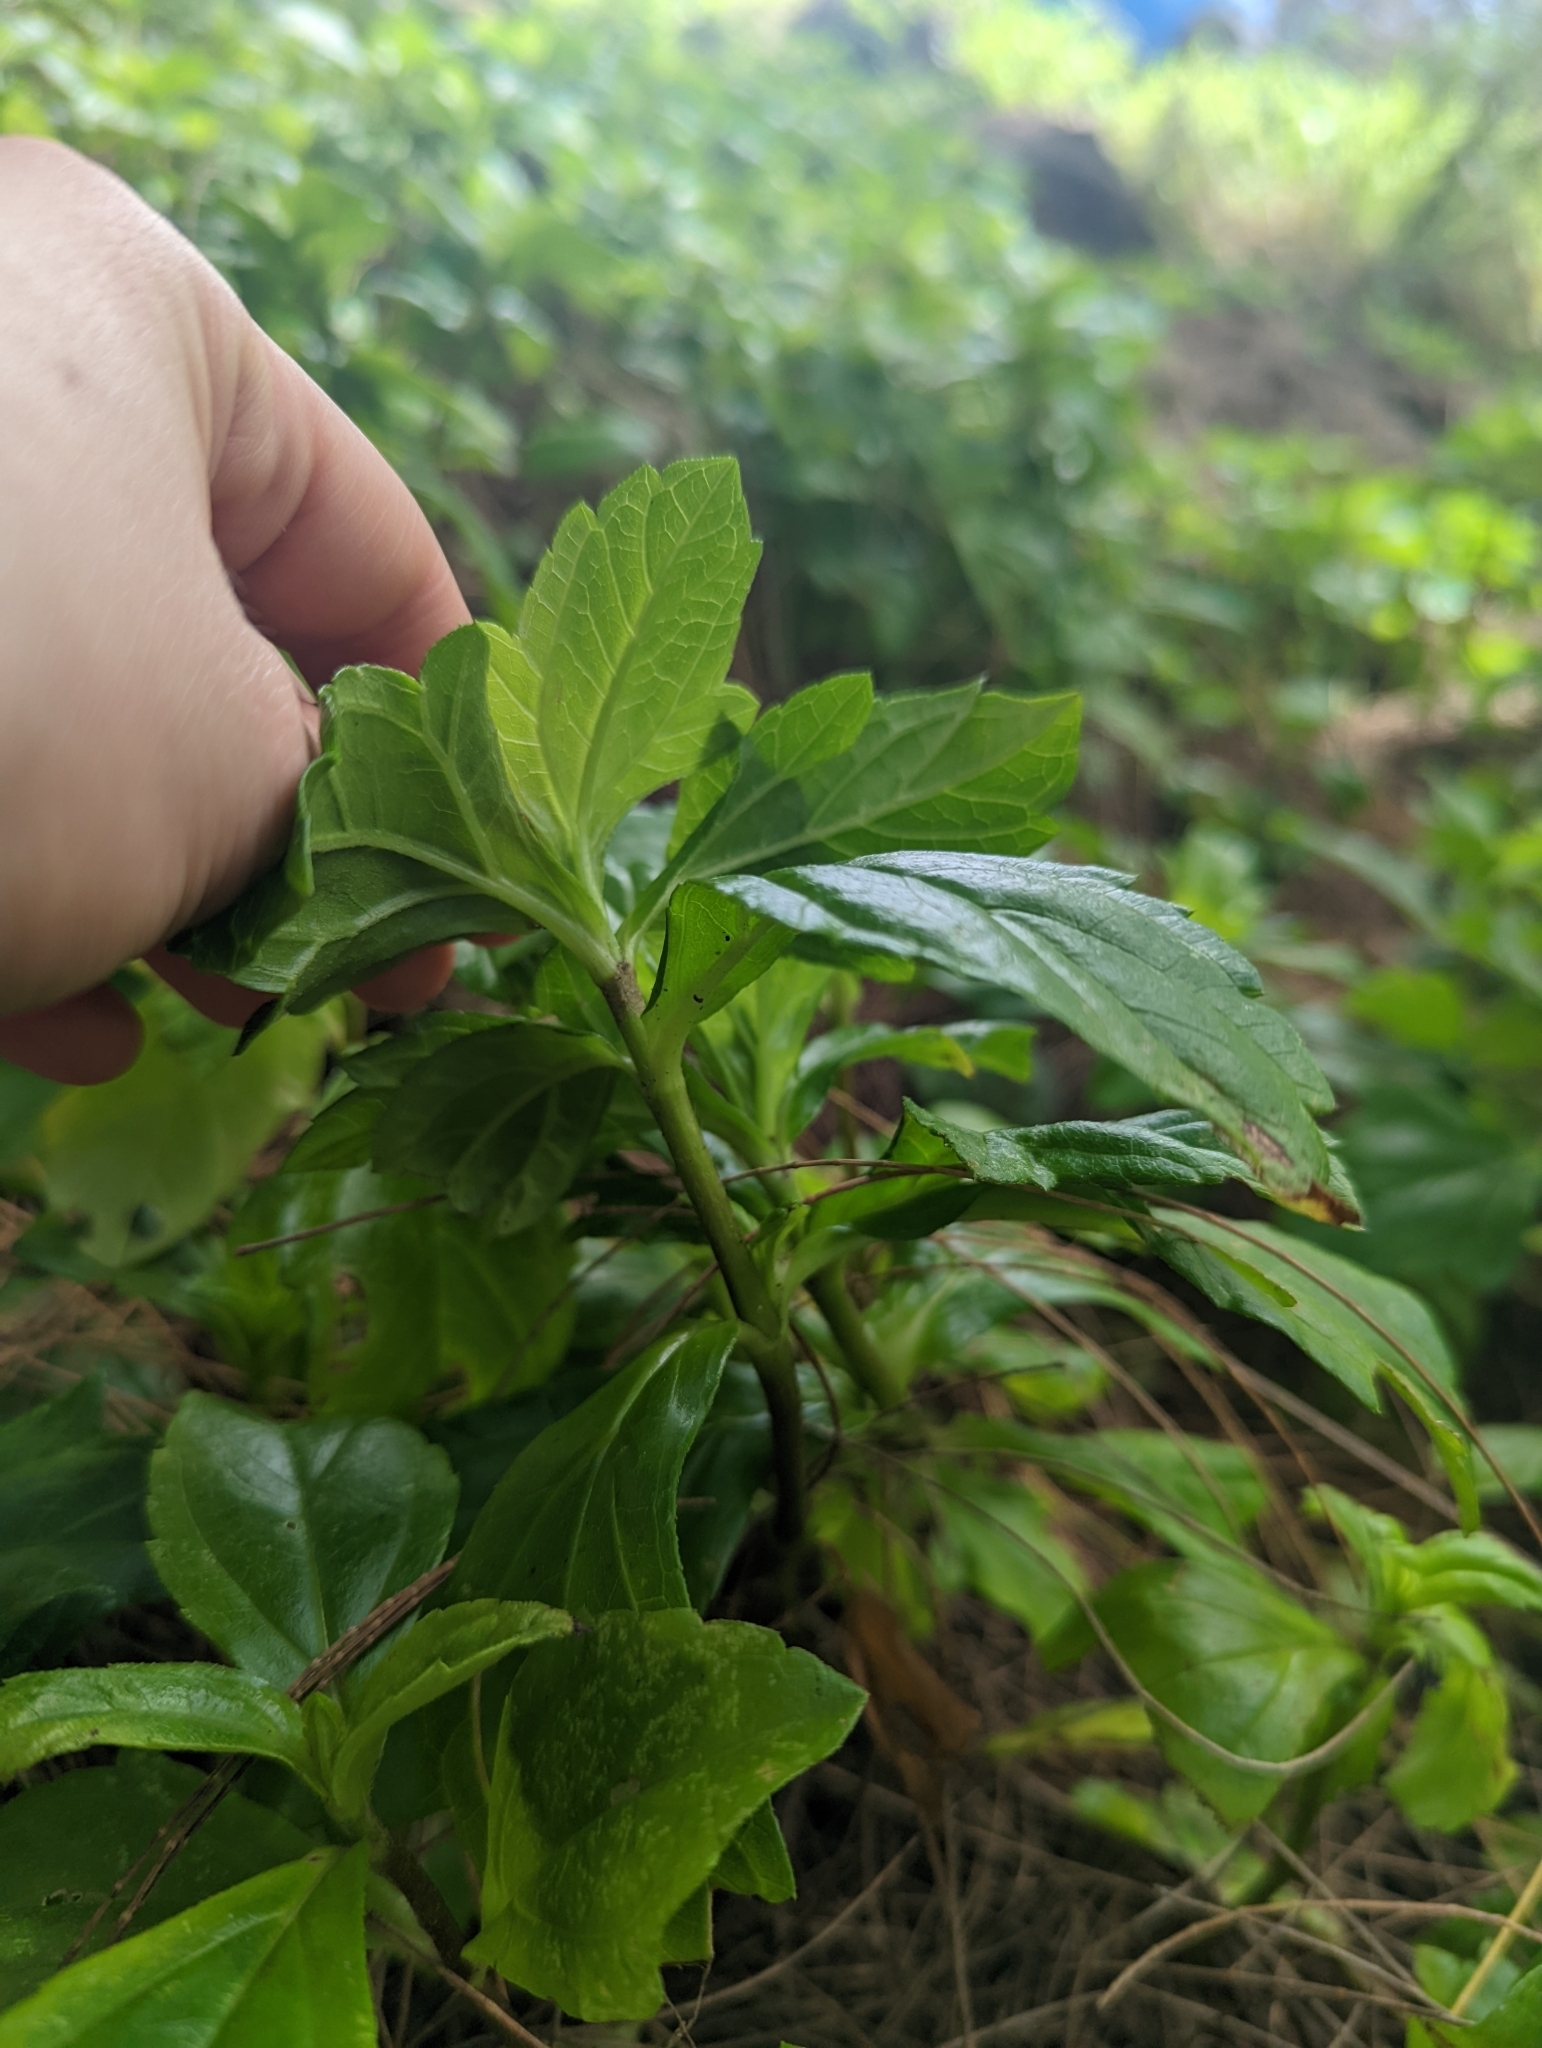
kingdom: Plantae
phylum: Tracheophyta
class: Magnoliopsida
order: Asterales
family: Asteraceae
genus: Sphagneticola
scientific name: Sphagneticola trilobata
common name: Bay biscayne creeping-oxeye
